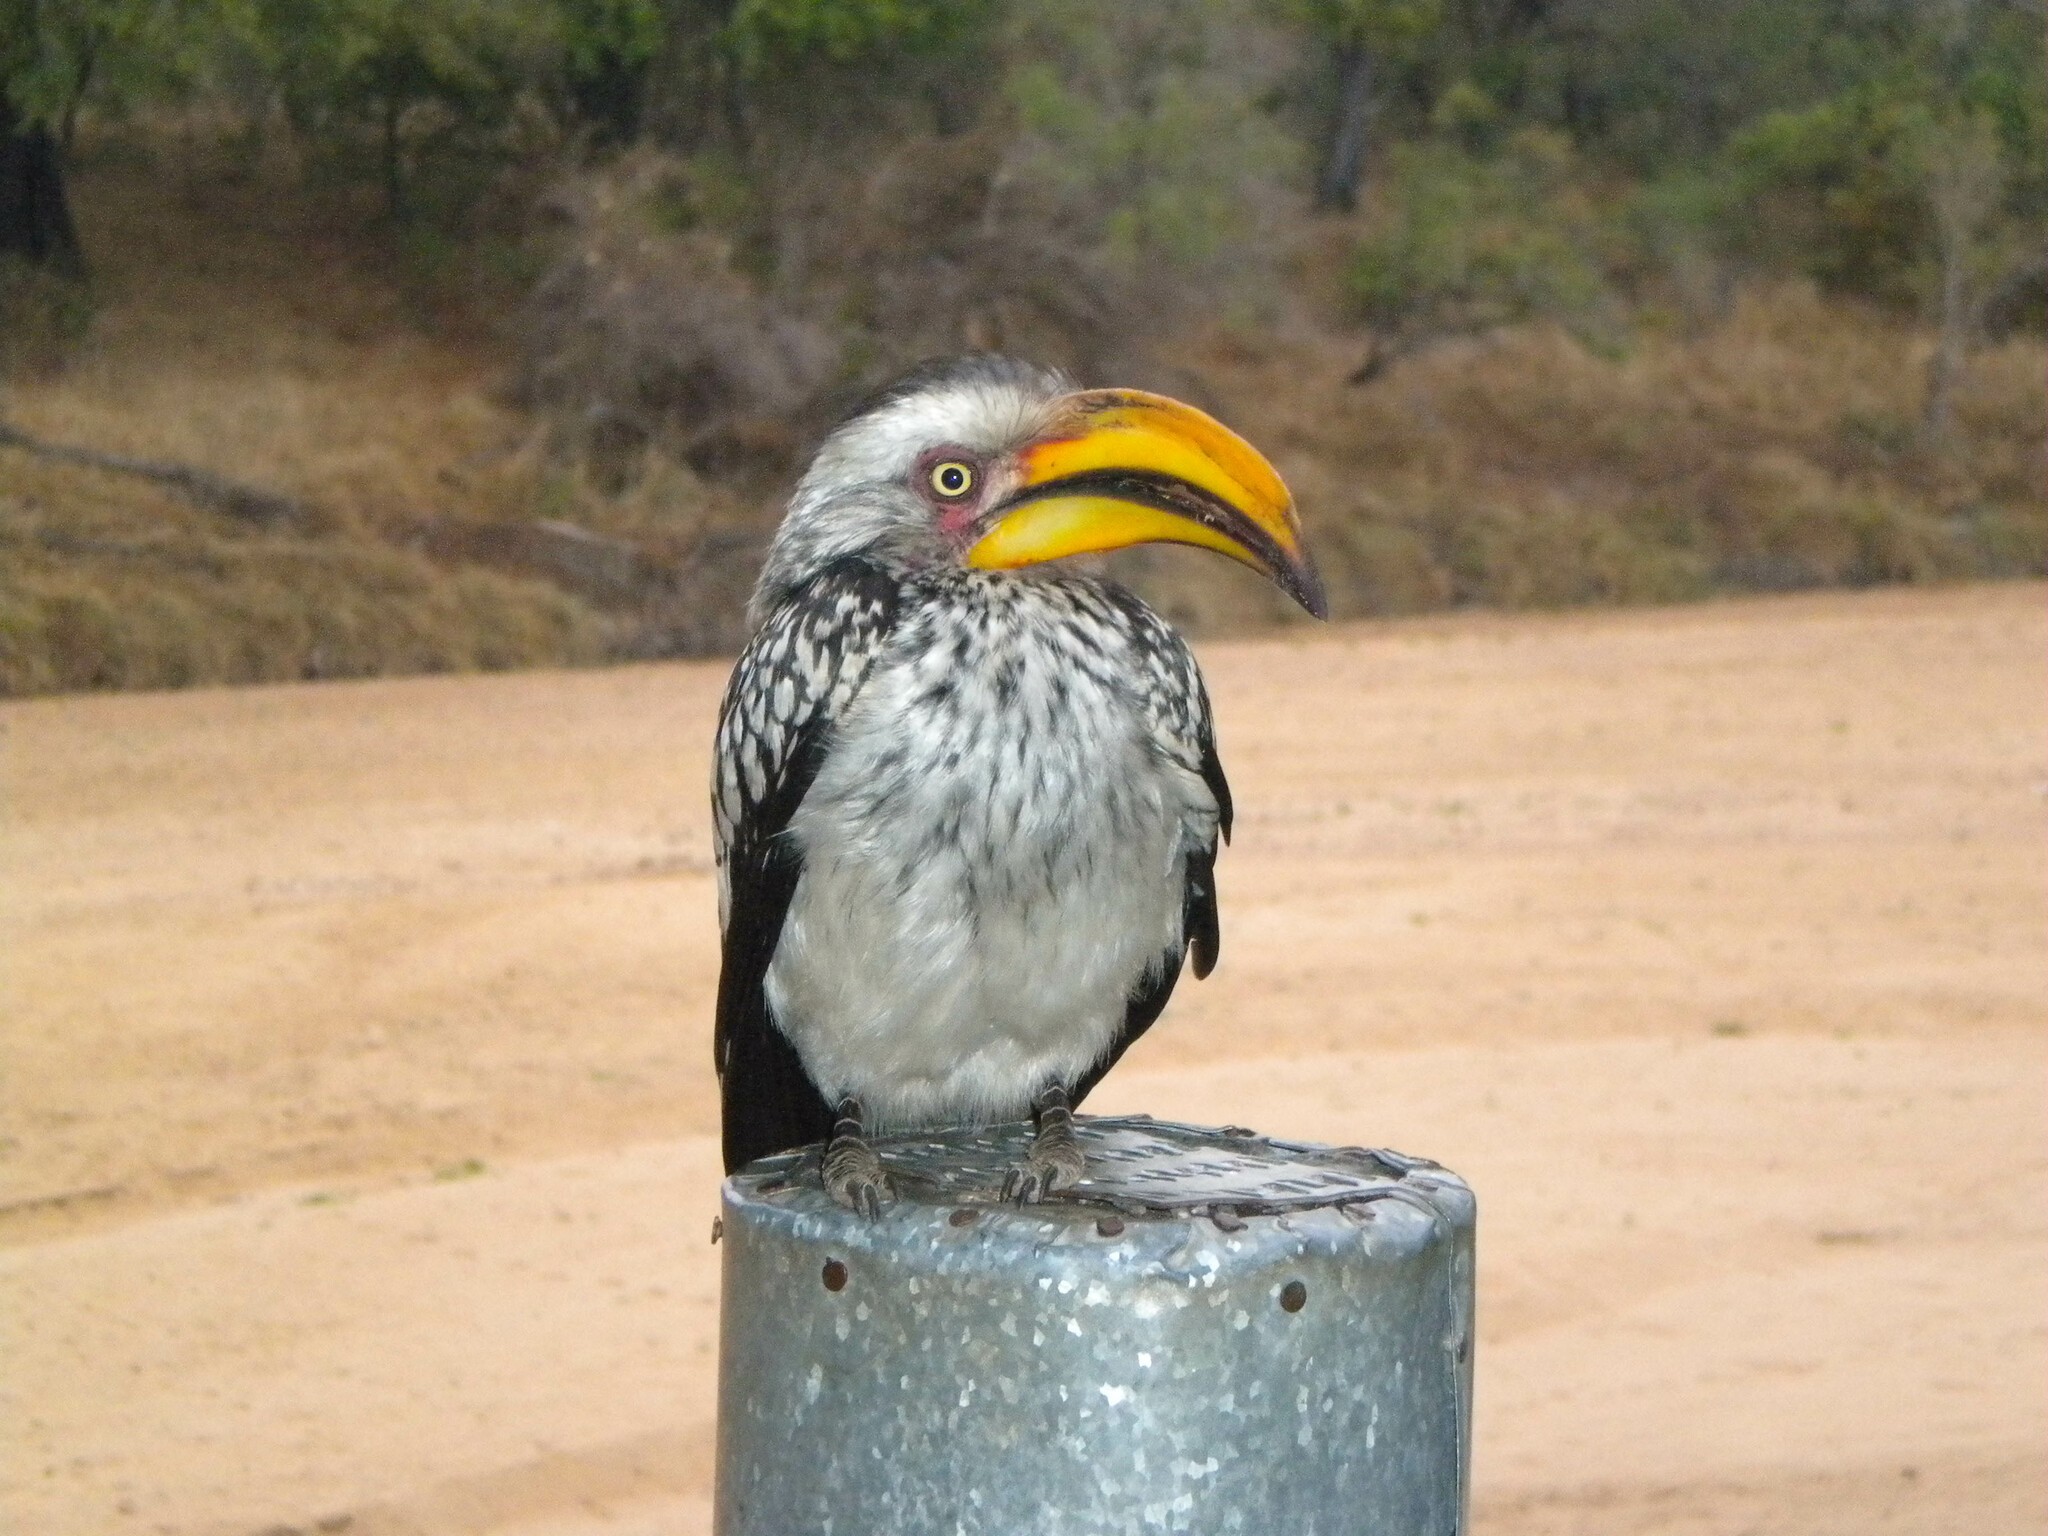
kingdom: Animalia
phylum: Chordata
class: Aves
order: Bucerotiformes
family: Bucerotidae
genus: Tockus
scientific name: Tockus leucomelas
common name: Southern yellow-billed hornbill
